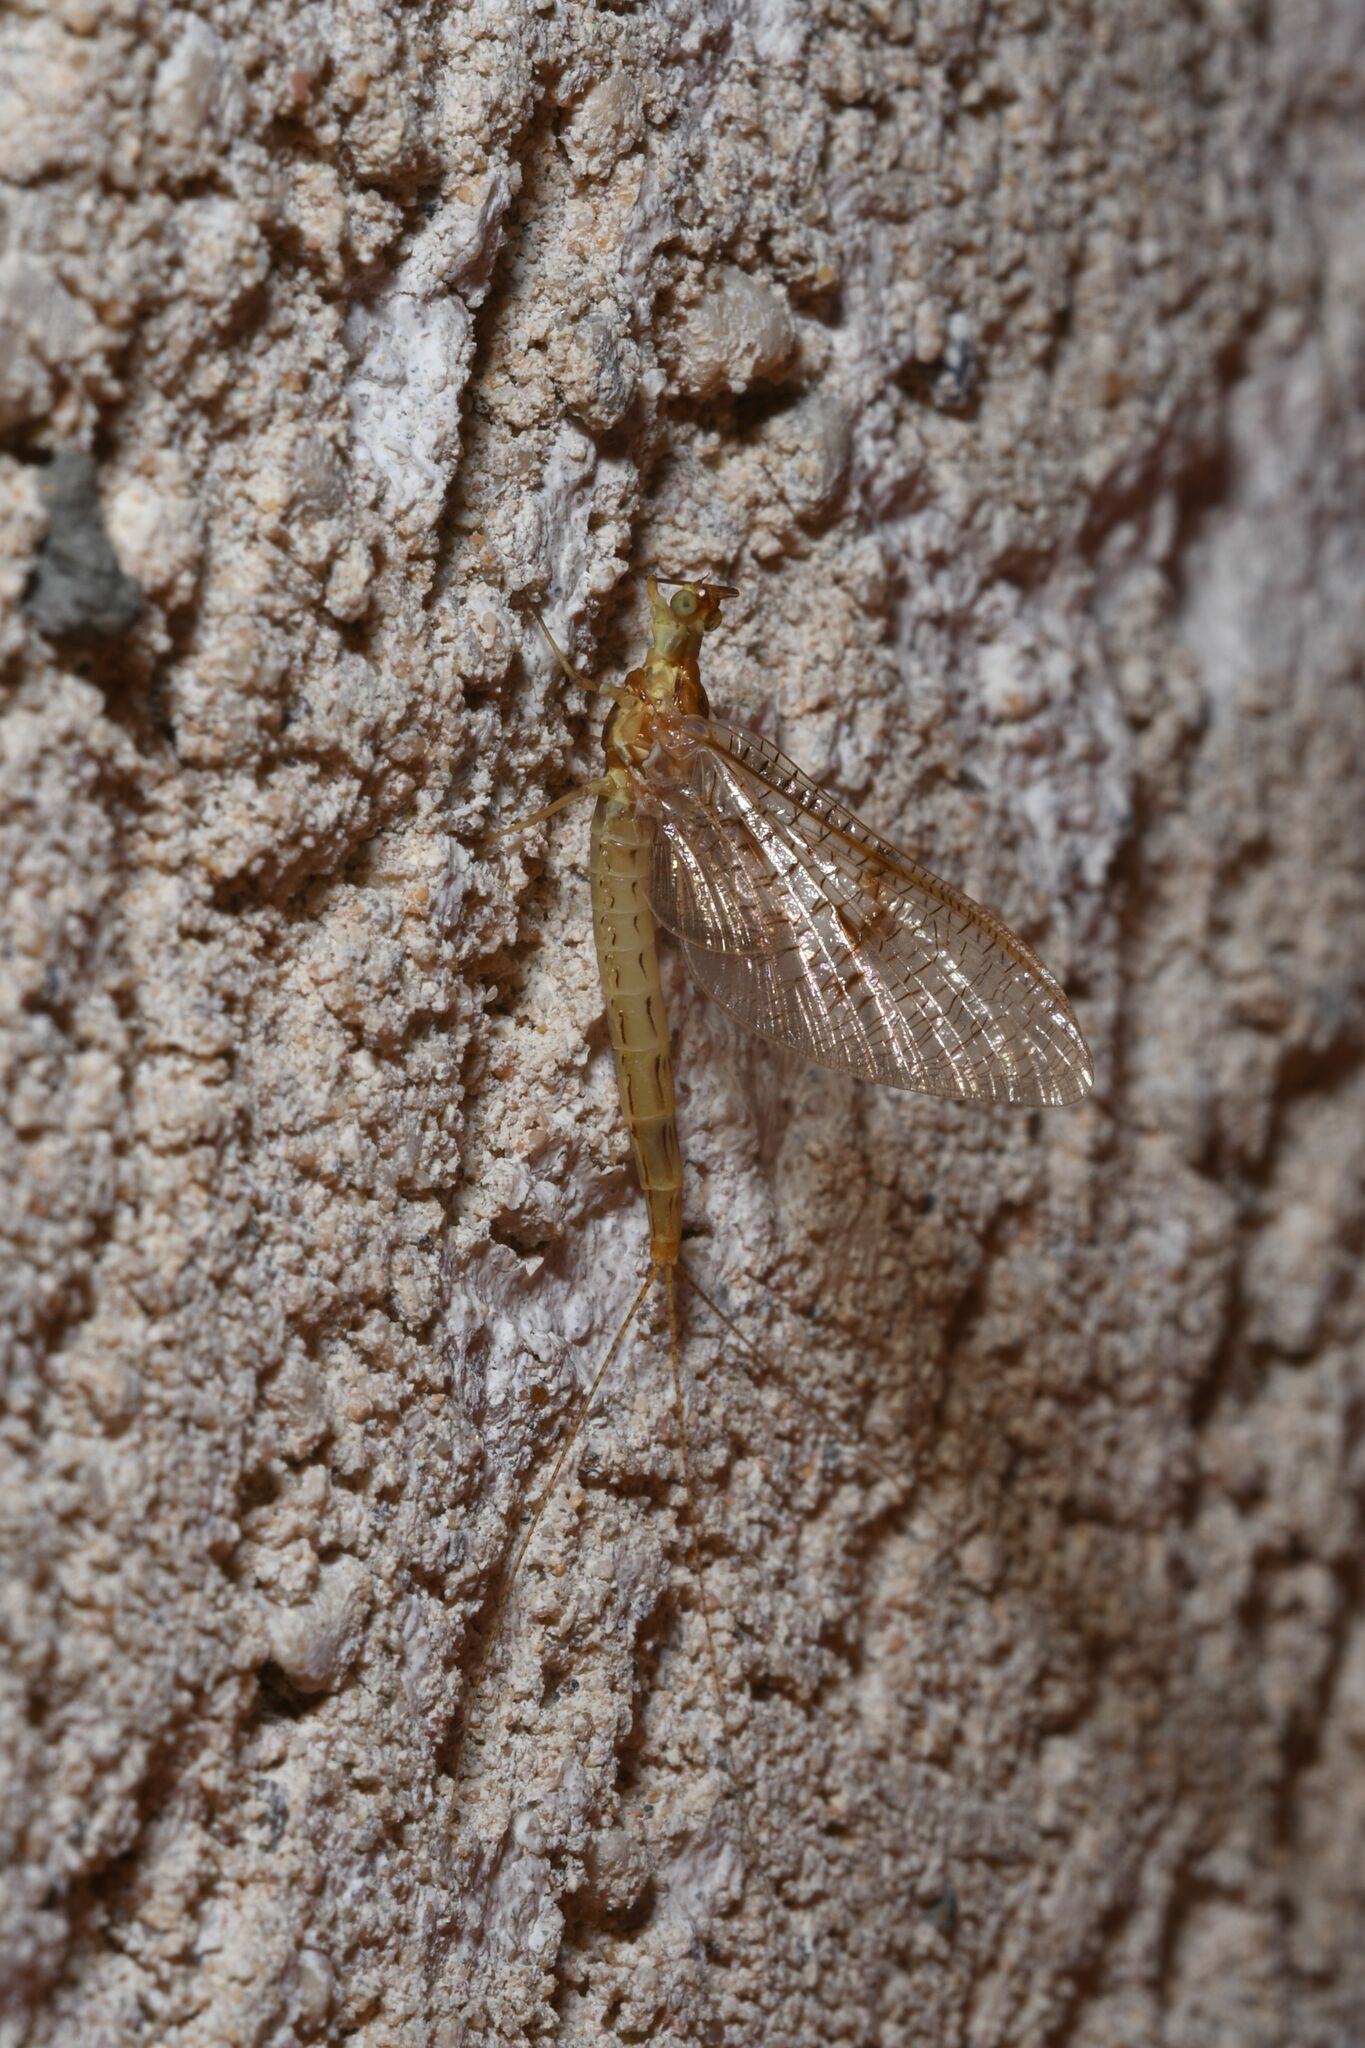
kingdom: Animalia
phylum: Arthropoda
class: Insecta
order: Ephemeroptera
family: Ephemeridae
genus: Ephemera
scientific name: Ephemera glaucops
